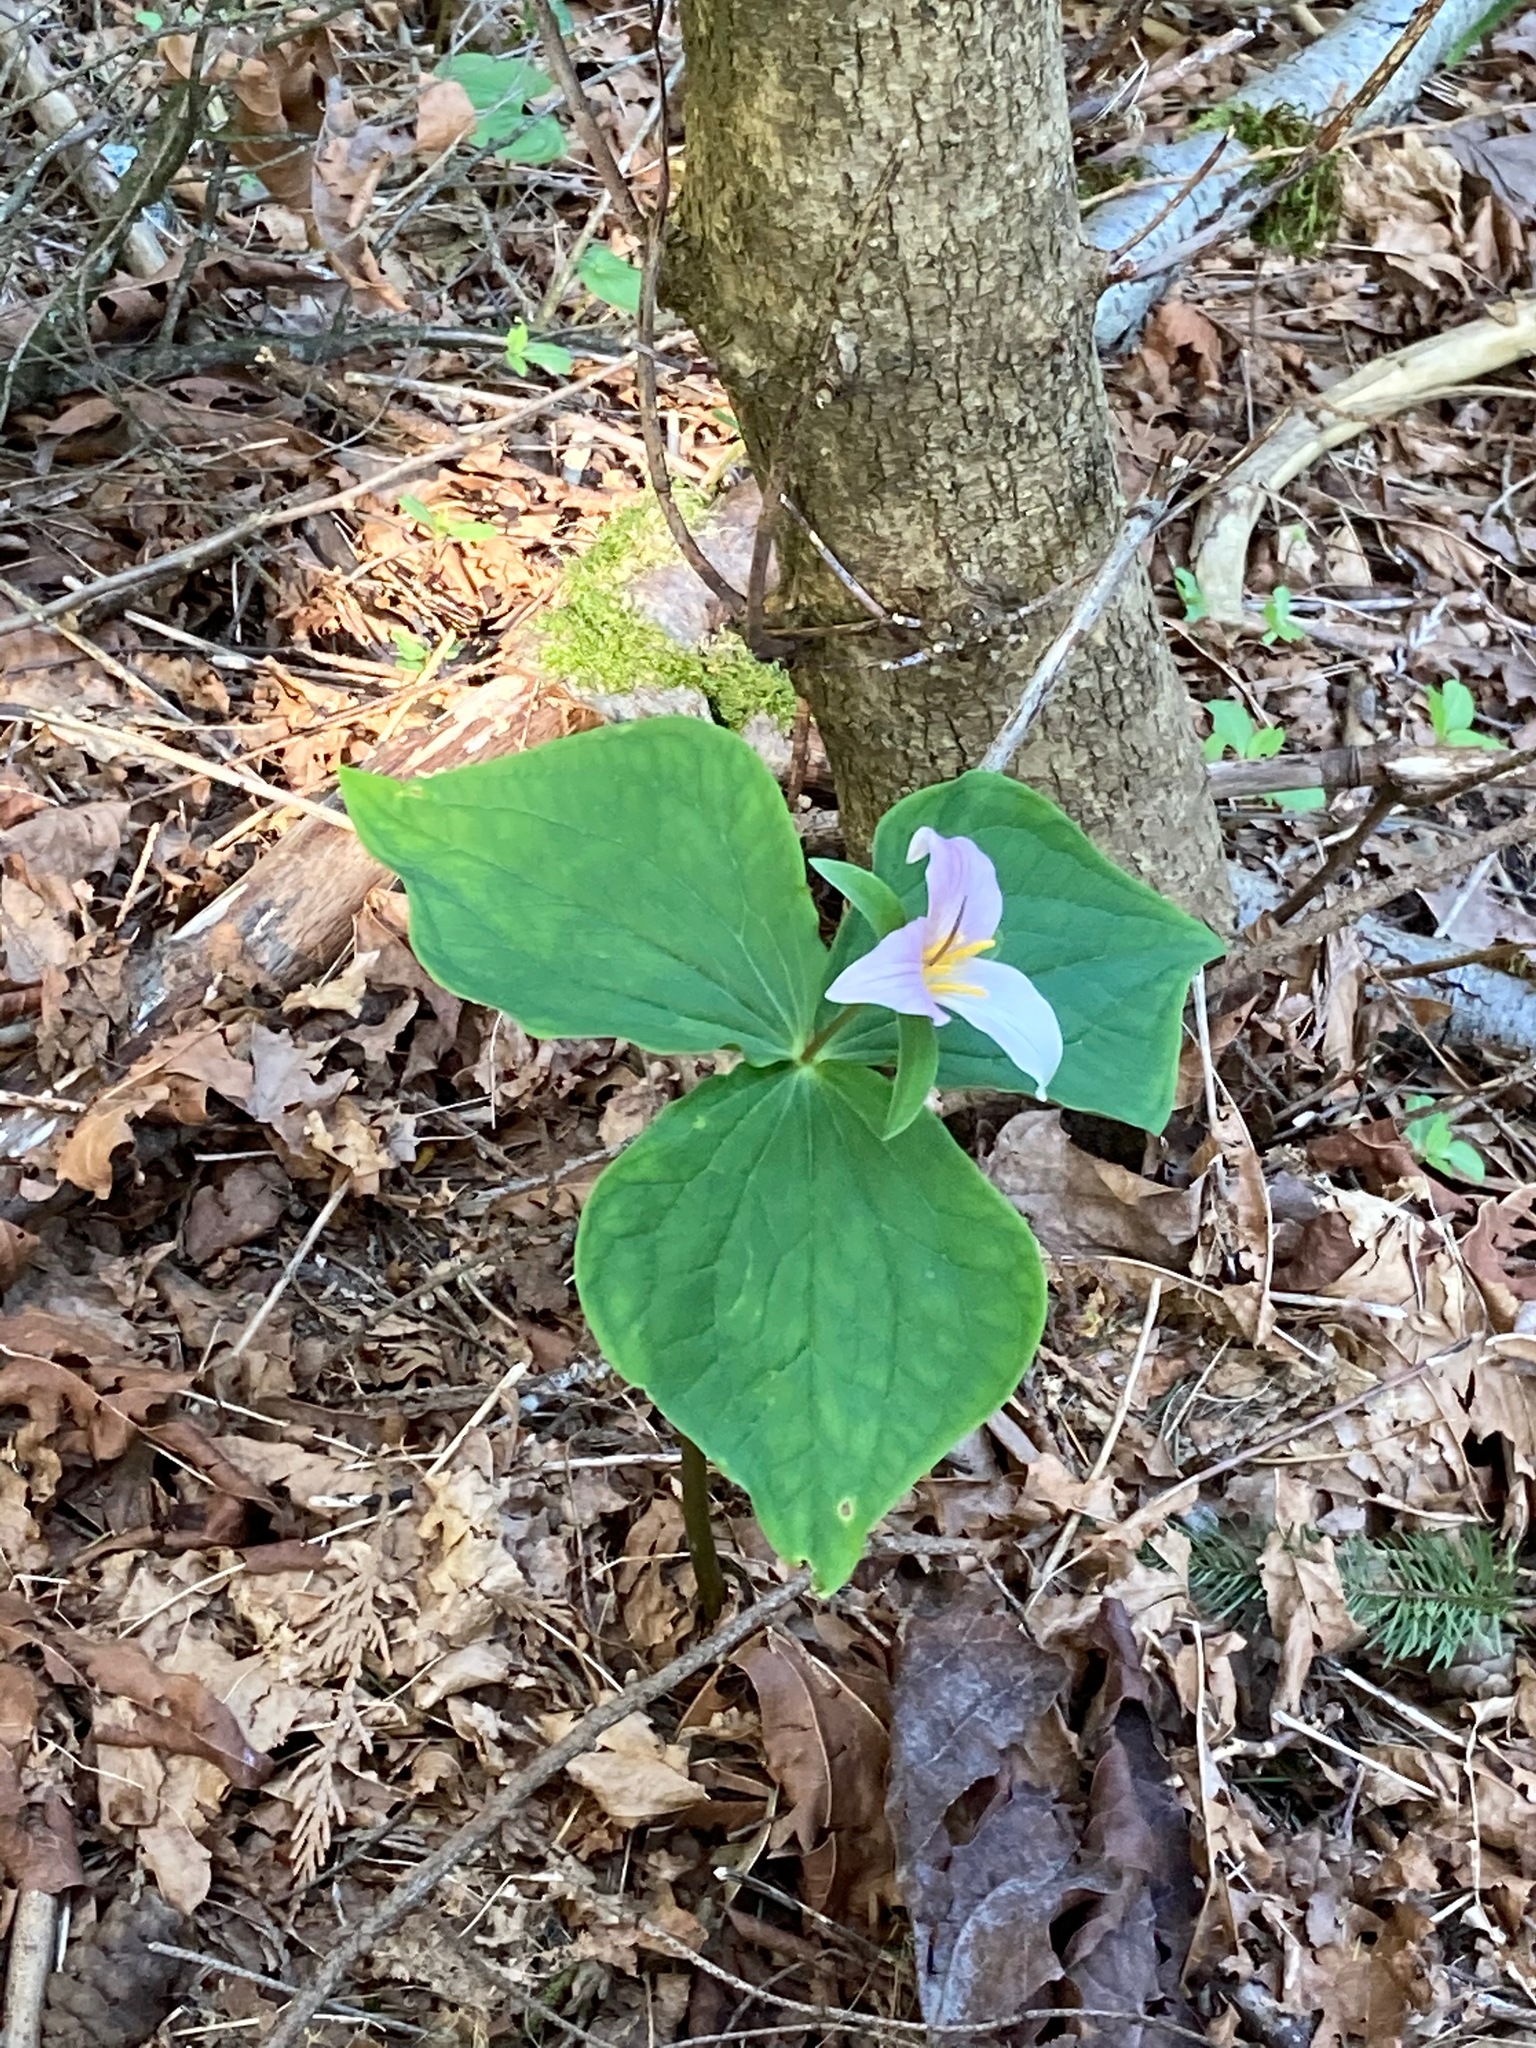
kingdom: Plantae
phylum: Tracheophyta
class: Liliopsida
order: Liliales
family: Melanthiaceae
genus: Trillium
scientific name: Trillium ovatum
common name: Pacific trillium
